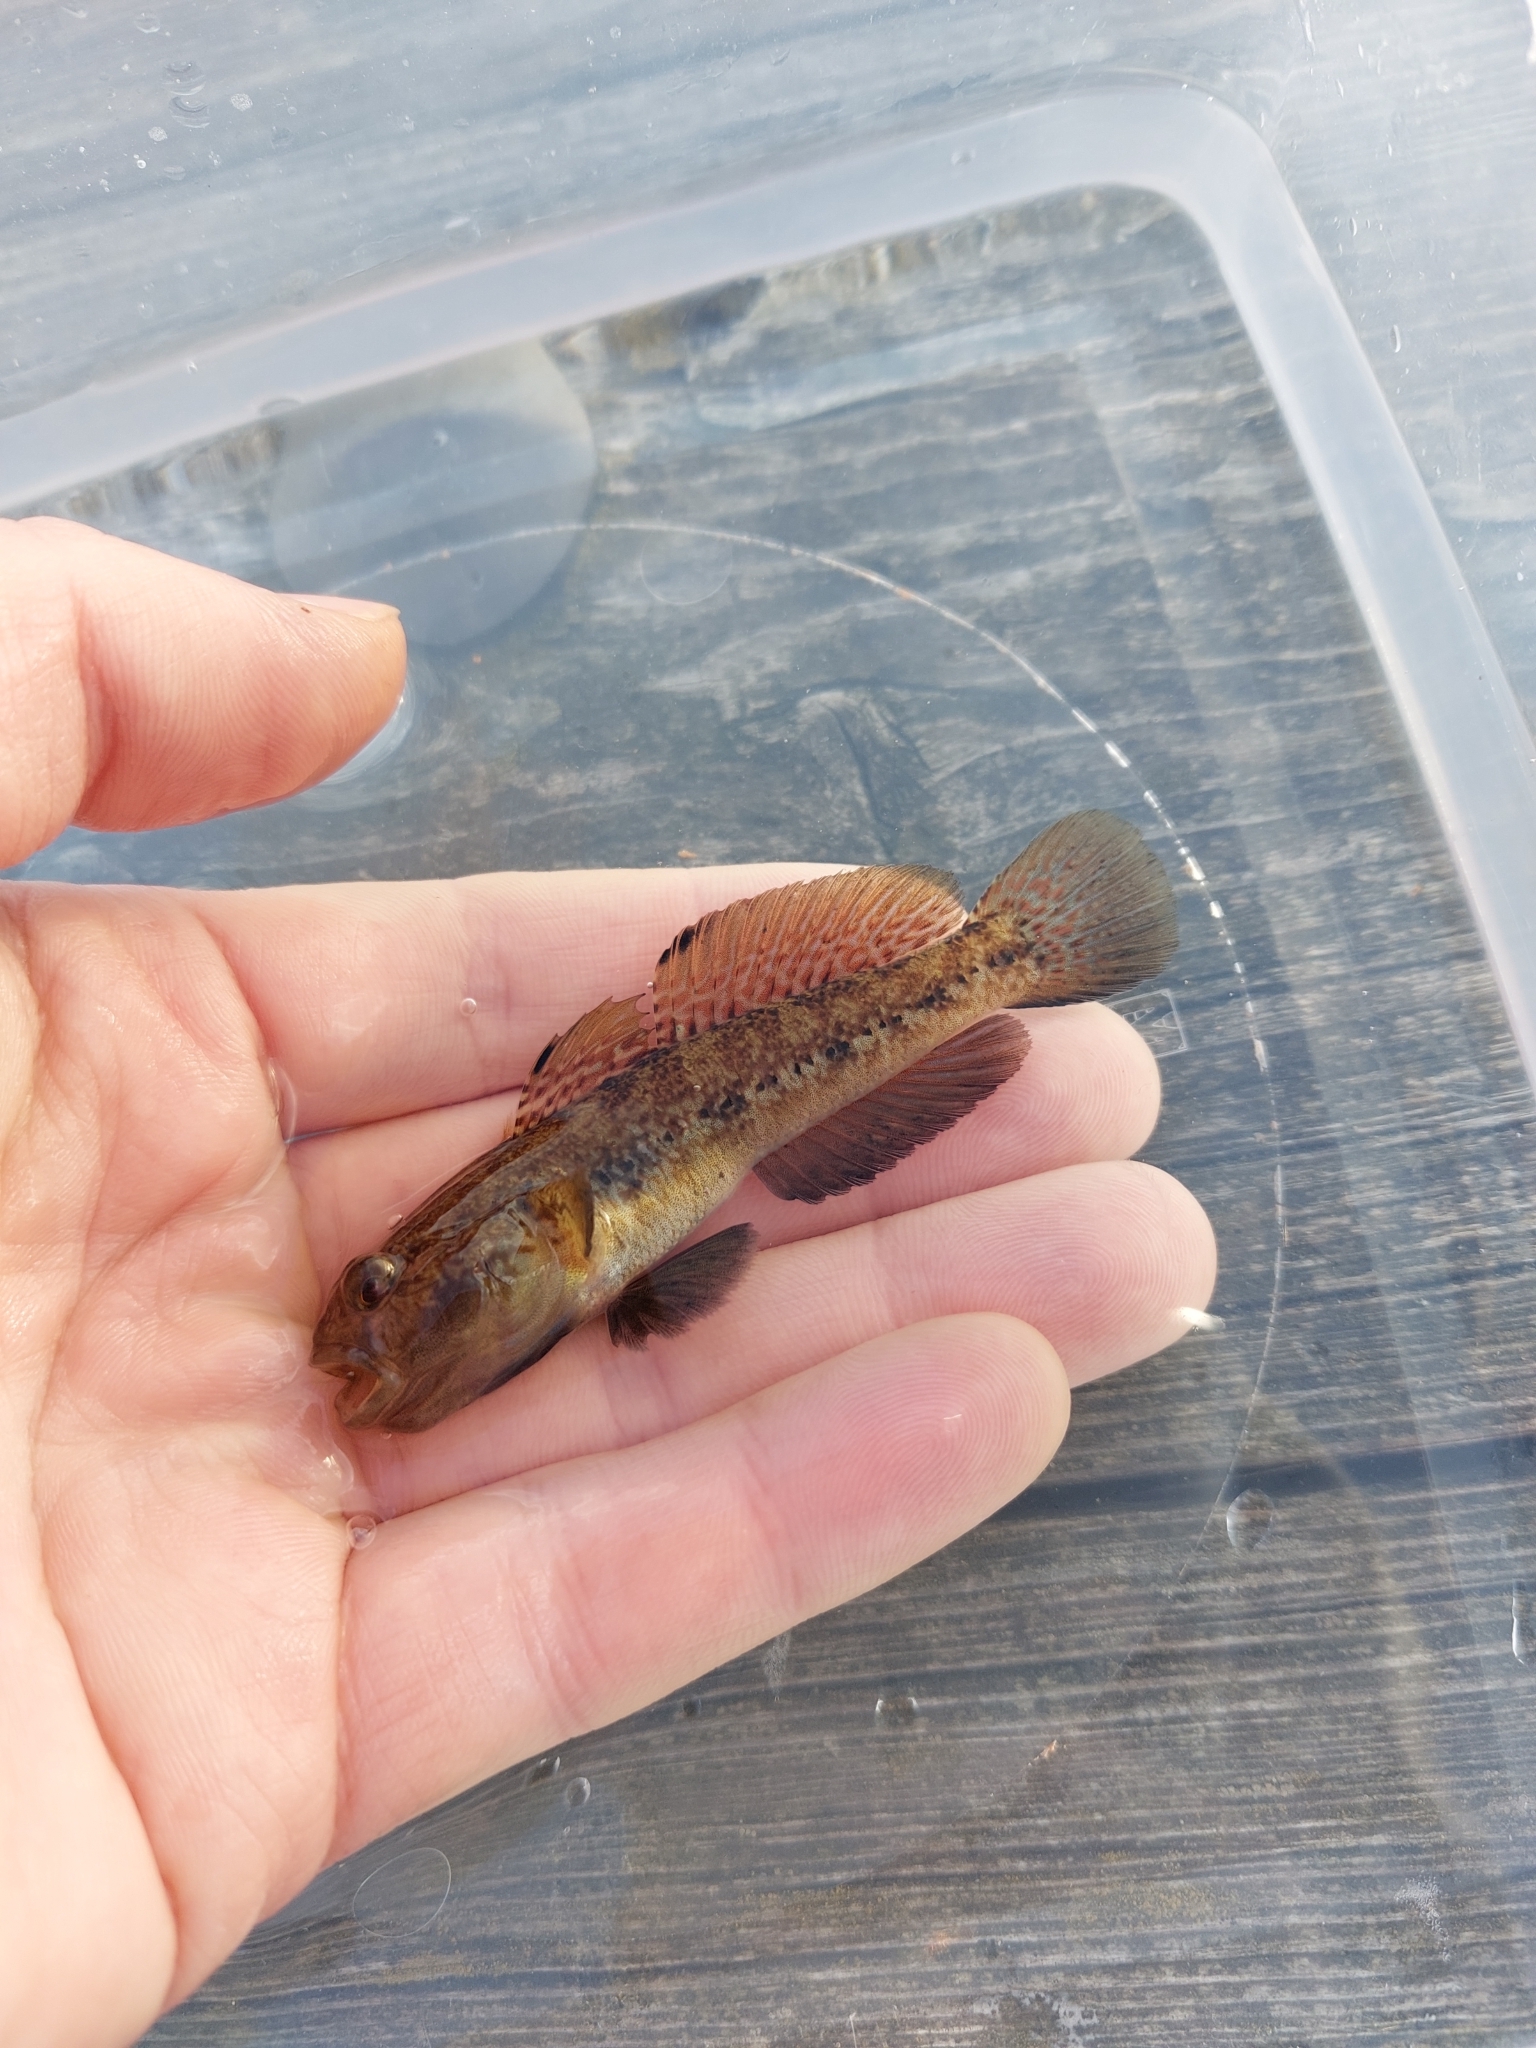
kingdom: Animalia
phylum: Chordata
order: Perciformes
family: Gobiidae
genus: Gobius
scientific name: Gobius niger
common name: Black goby
